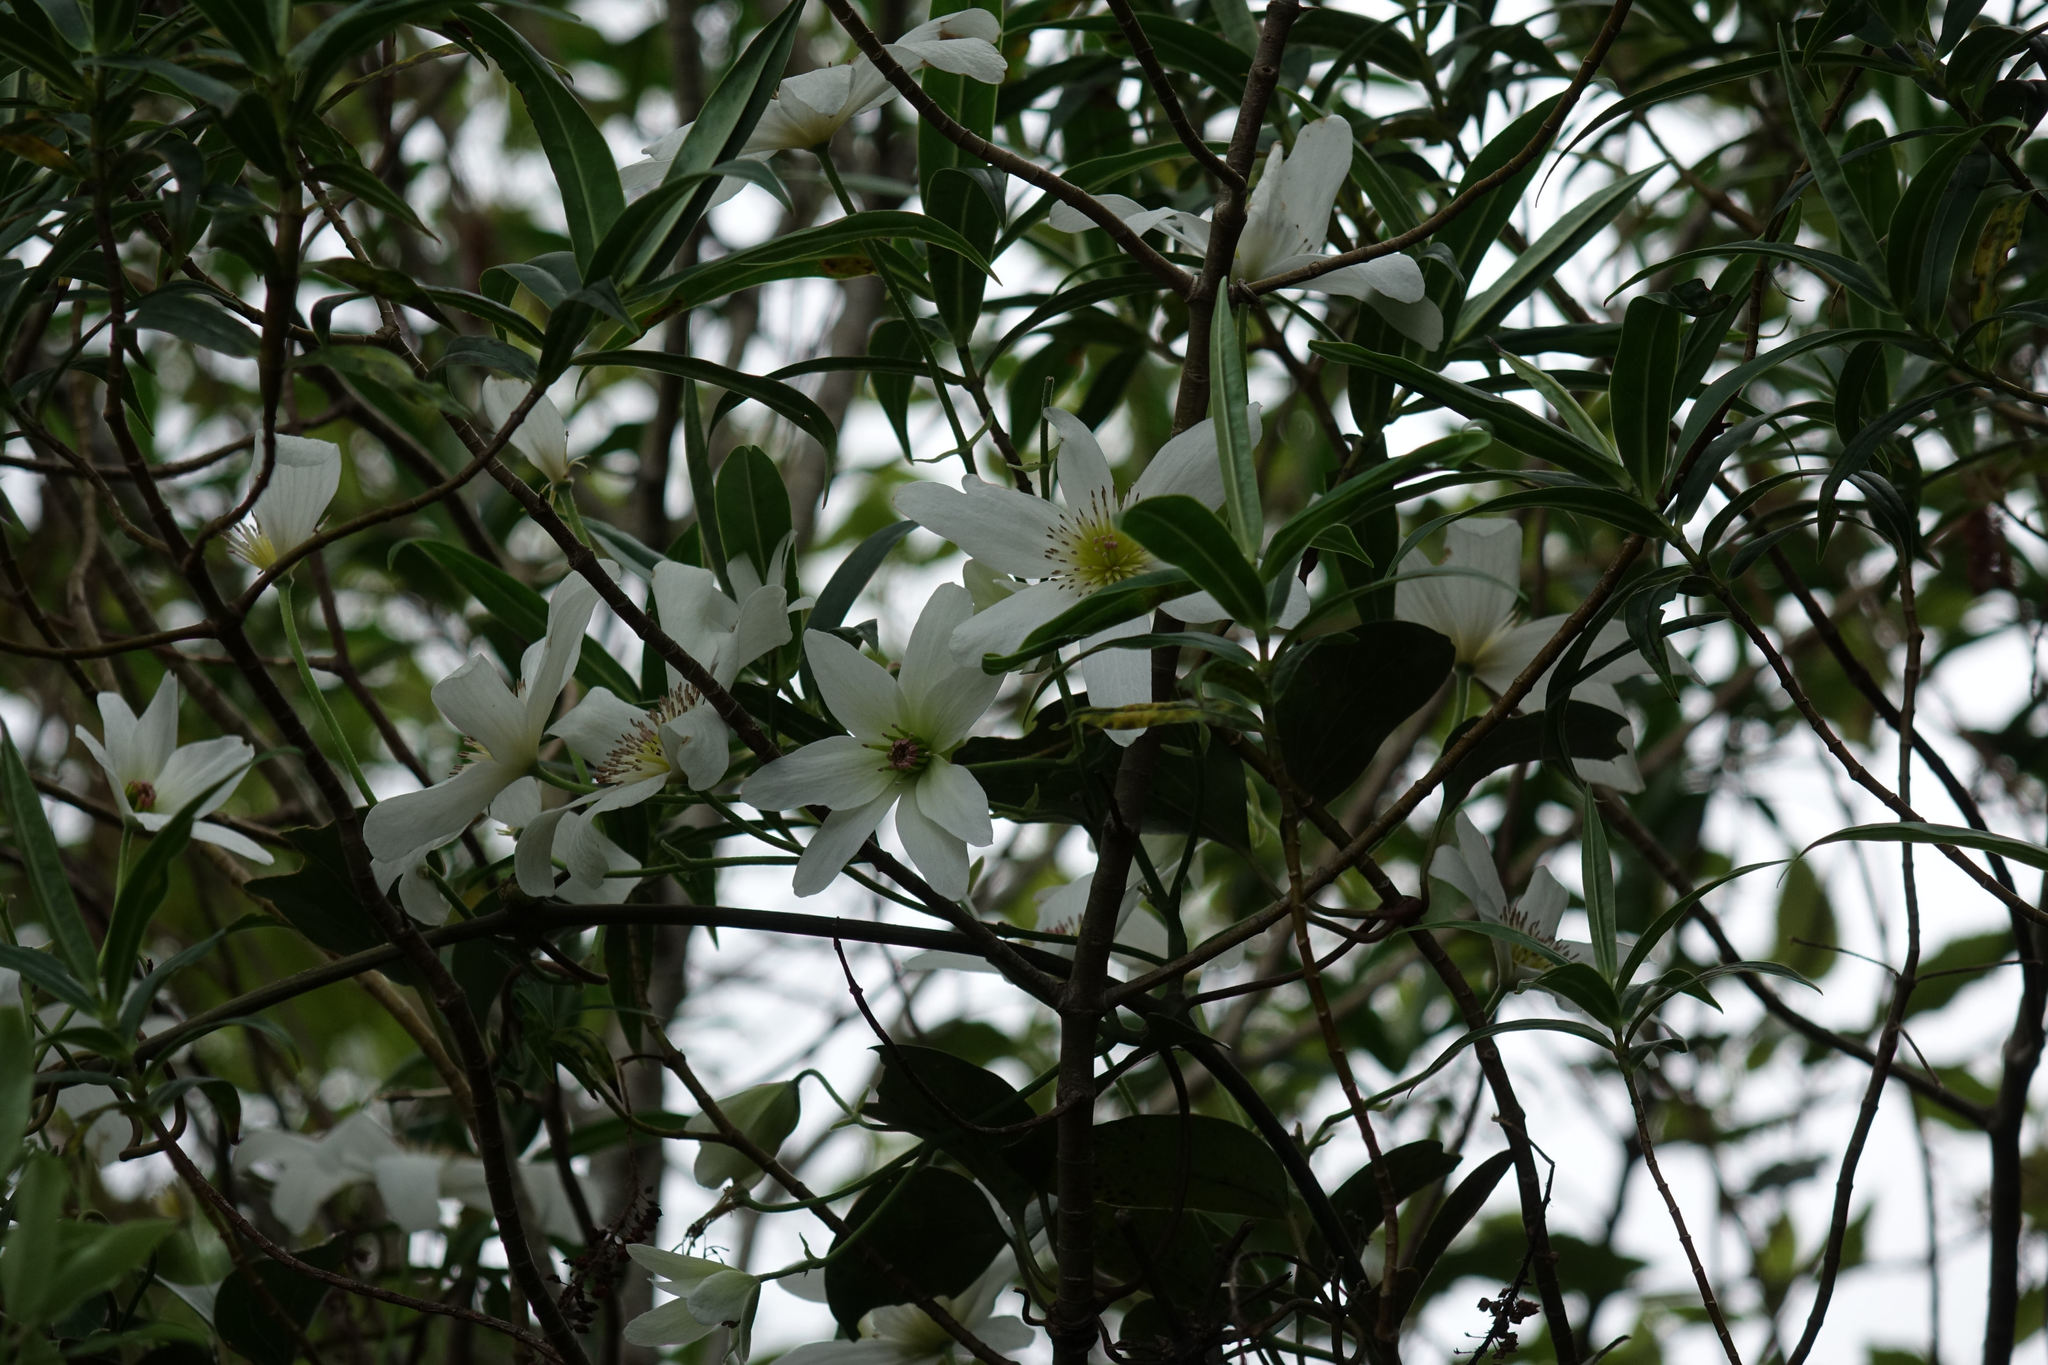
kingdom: Plantae
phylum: Tracheophyta
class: Magnoliopsida
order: Ranunculales
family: Ranunculaceae
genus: Clematis
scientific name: Clematis paniculata
